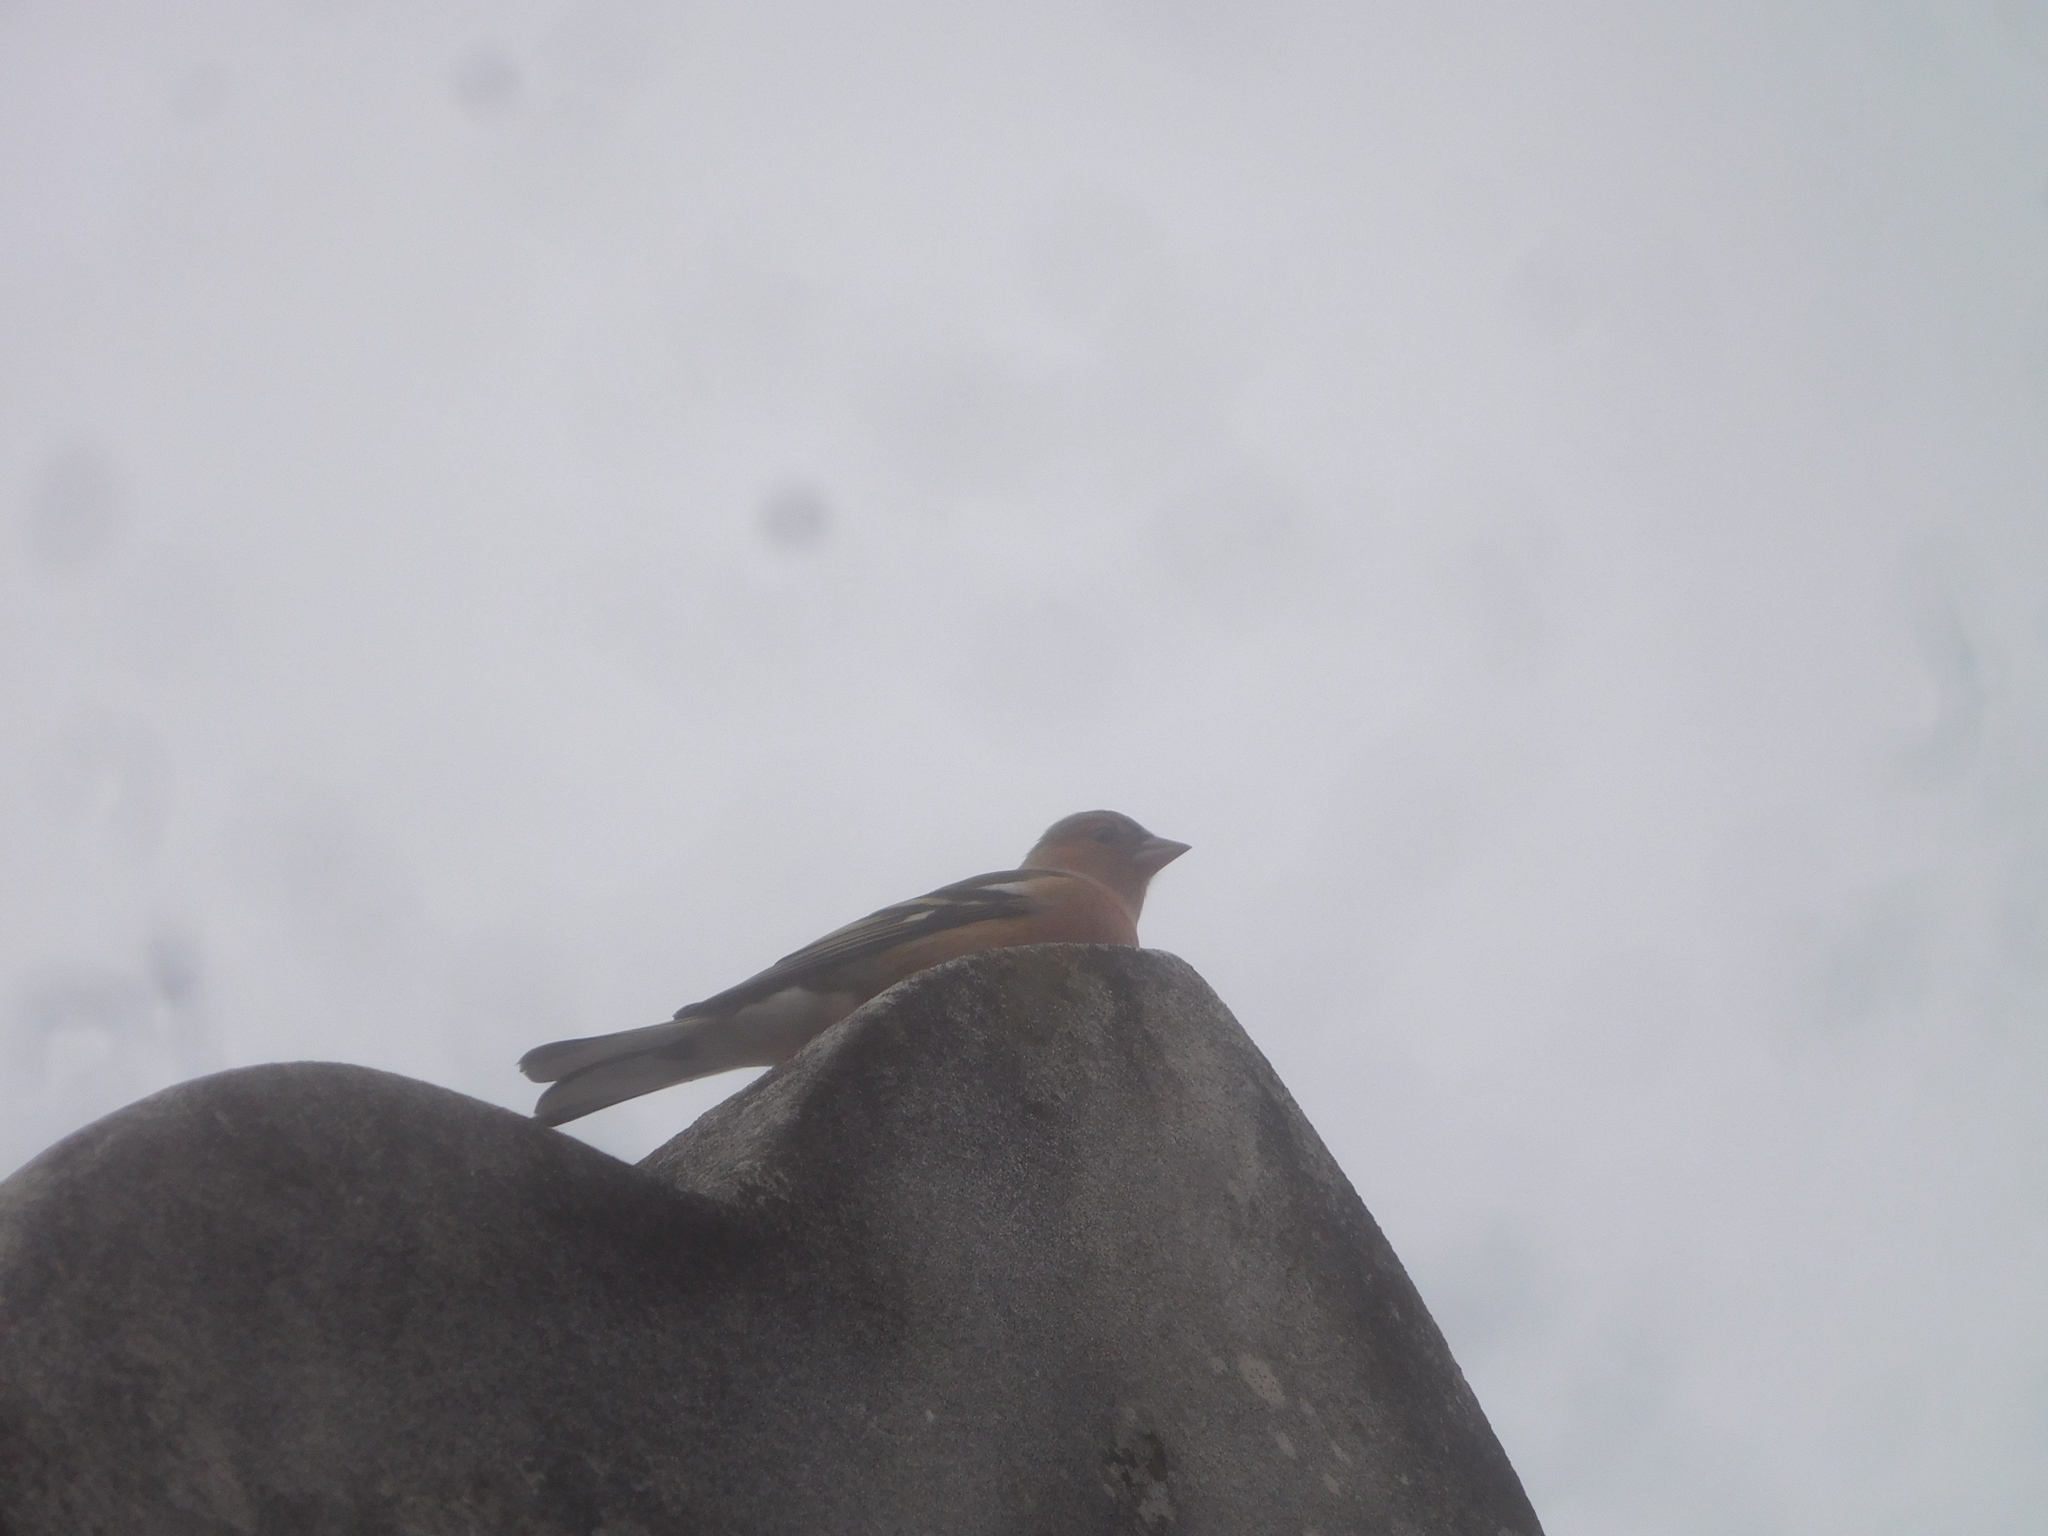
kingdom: Animalia
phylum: Chordata
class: Aves
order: Passeriformes
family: Fringillidae
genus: Fringilla
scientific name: Fringilla coelebs
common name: Common chaffinch
